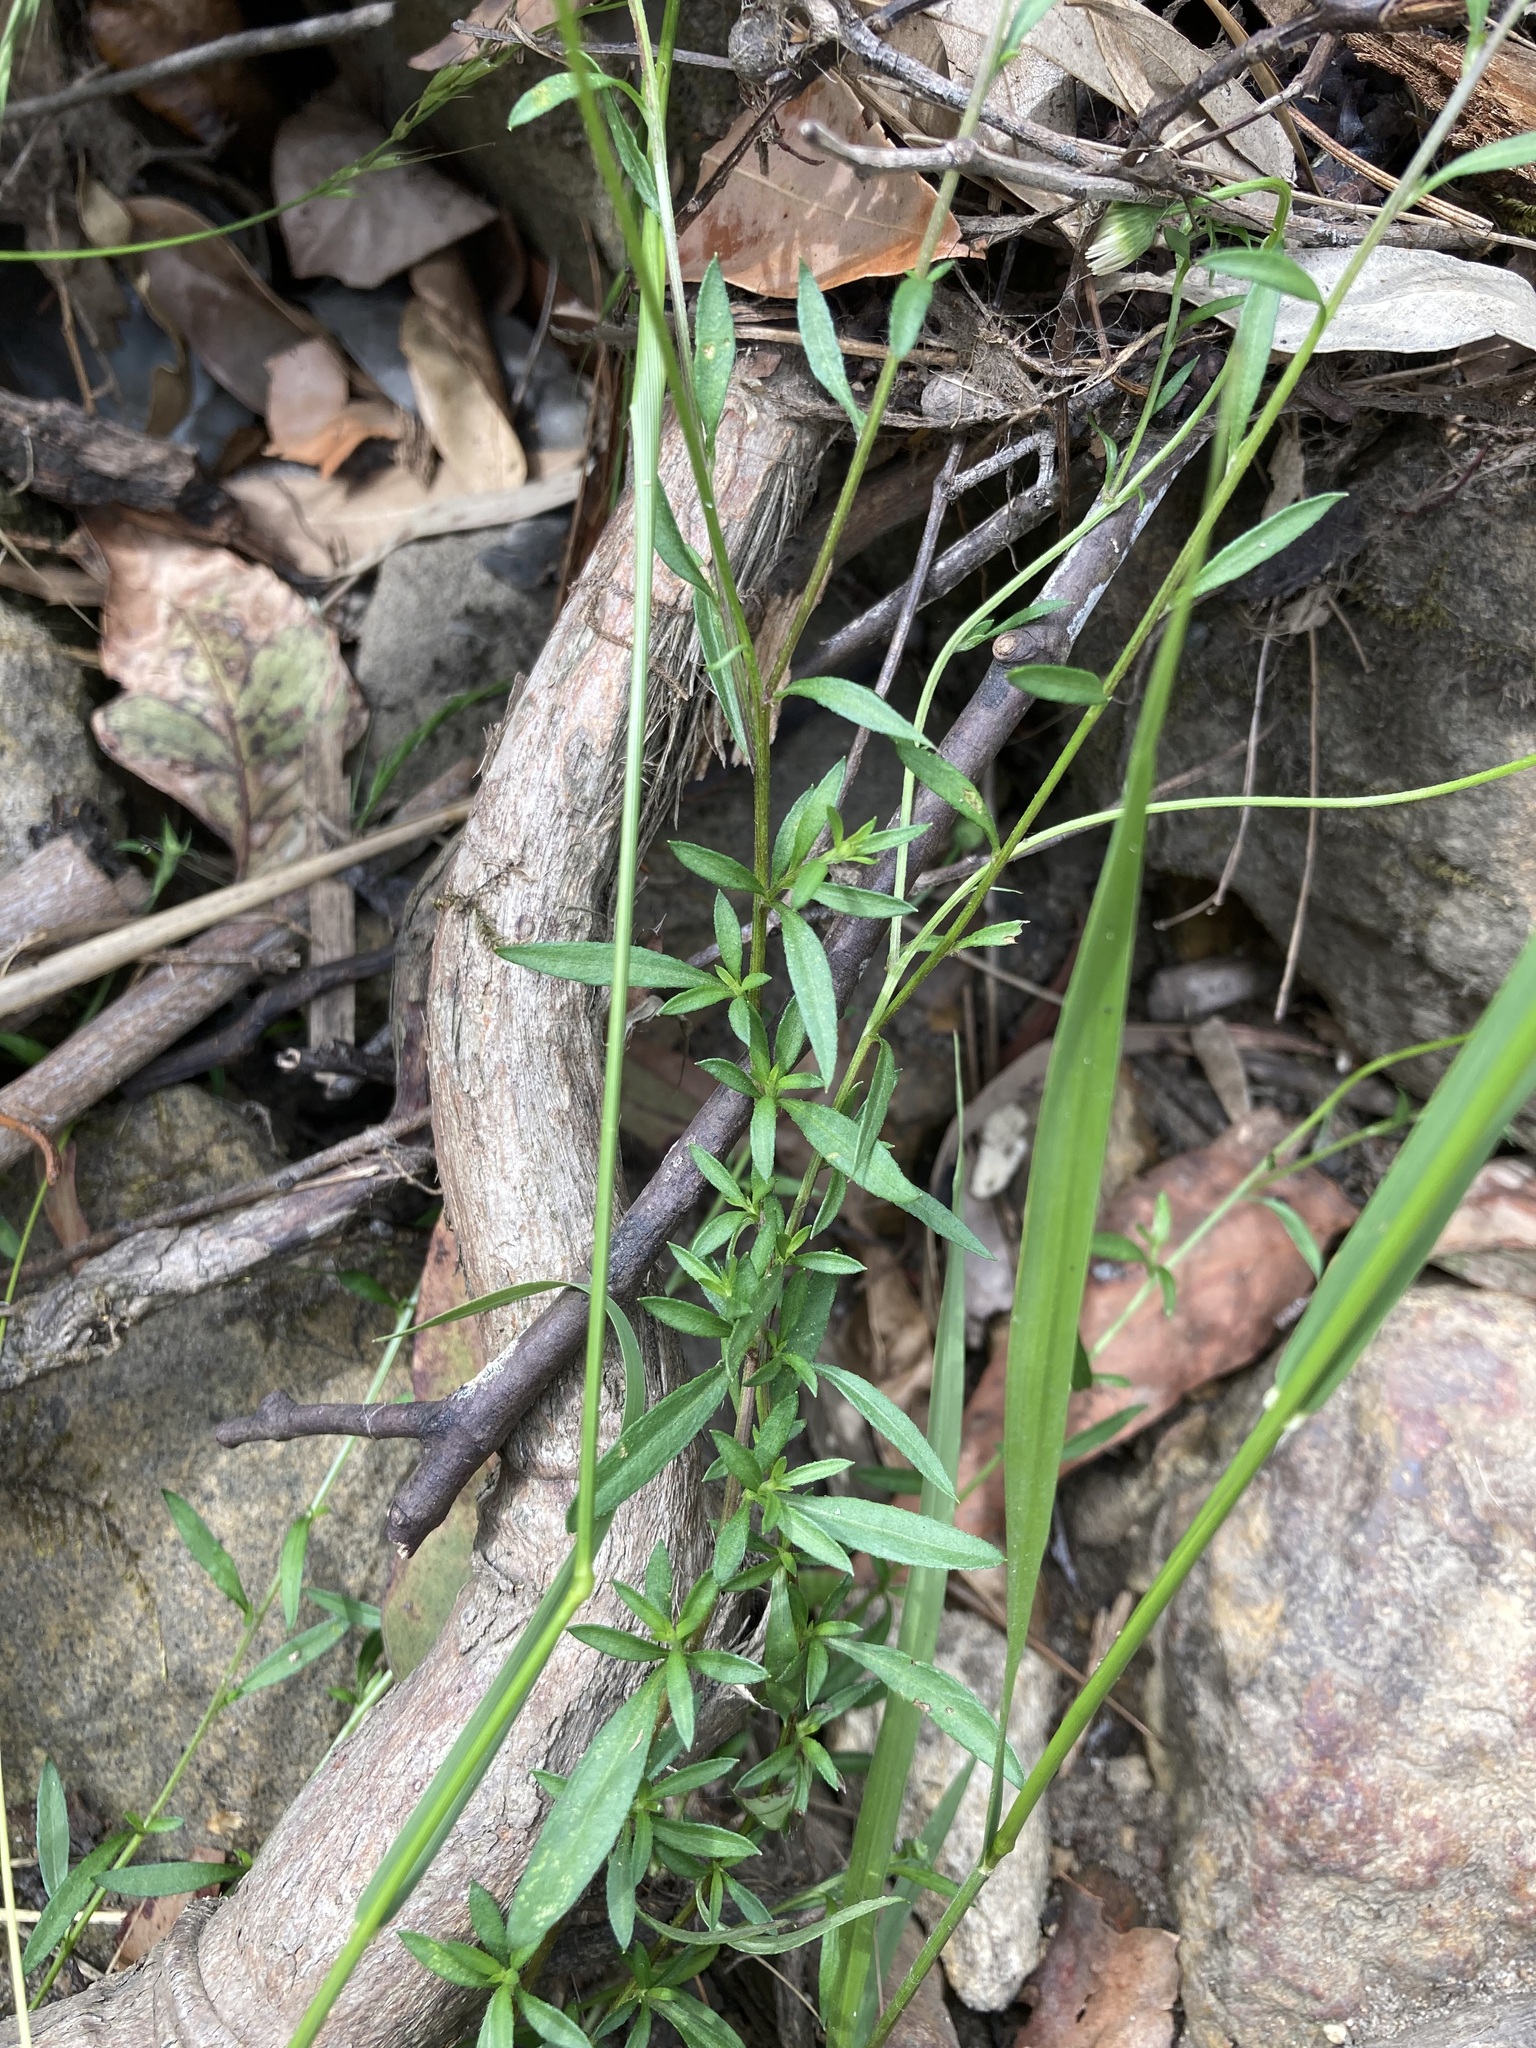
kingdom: Plantae
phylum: Tracheophyta
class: Magnoliopsida
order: Asterales
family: Asteraceae
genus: Erigeron
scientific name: Erigeron karvinskianus
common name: Mexican fleabane
